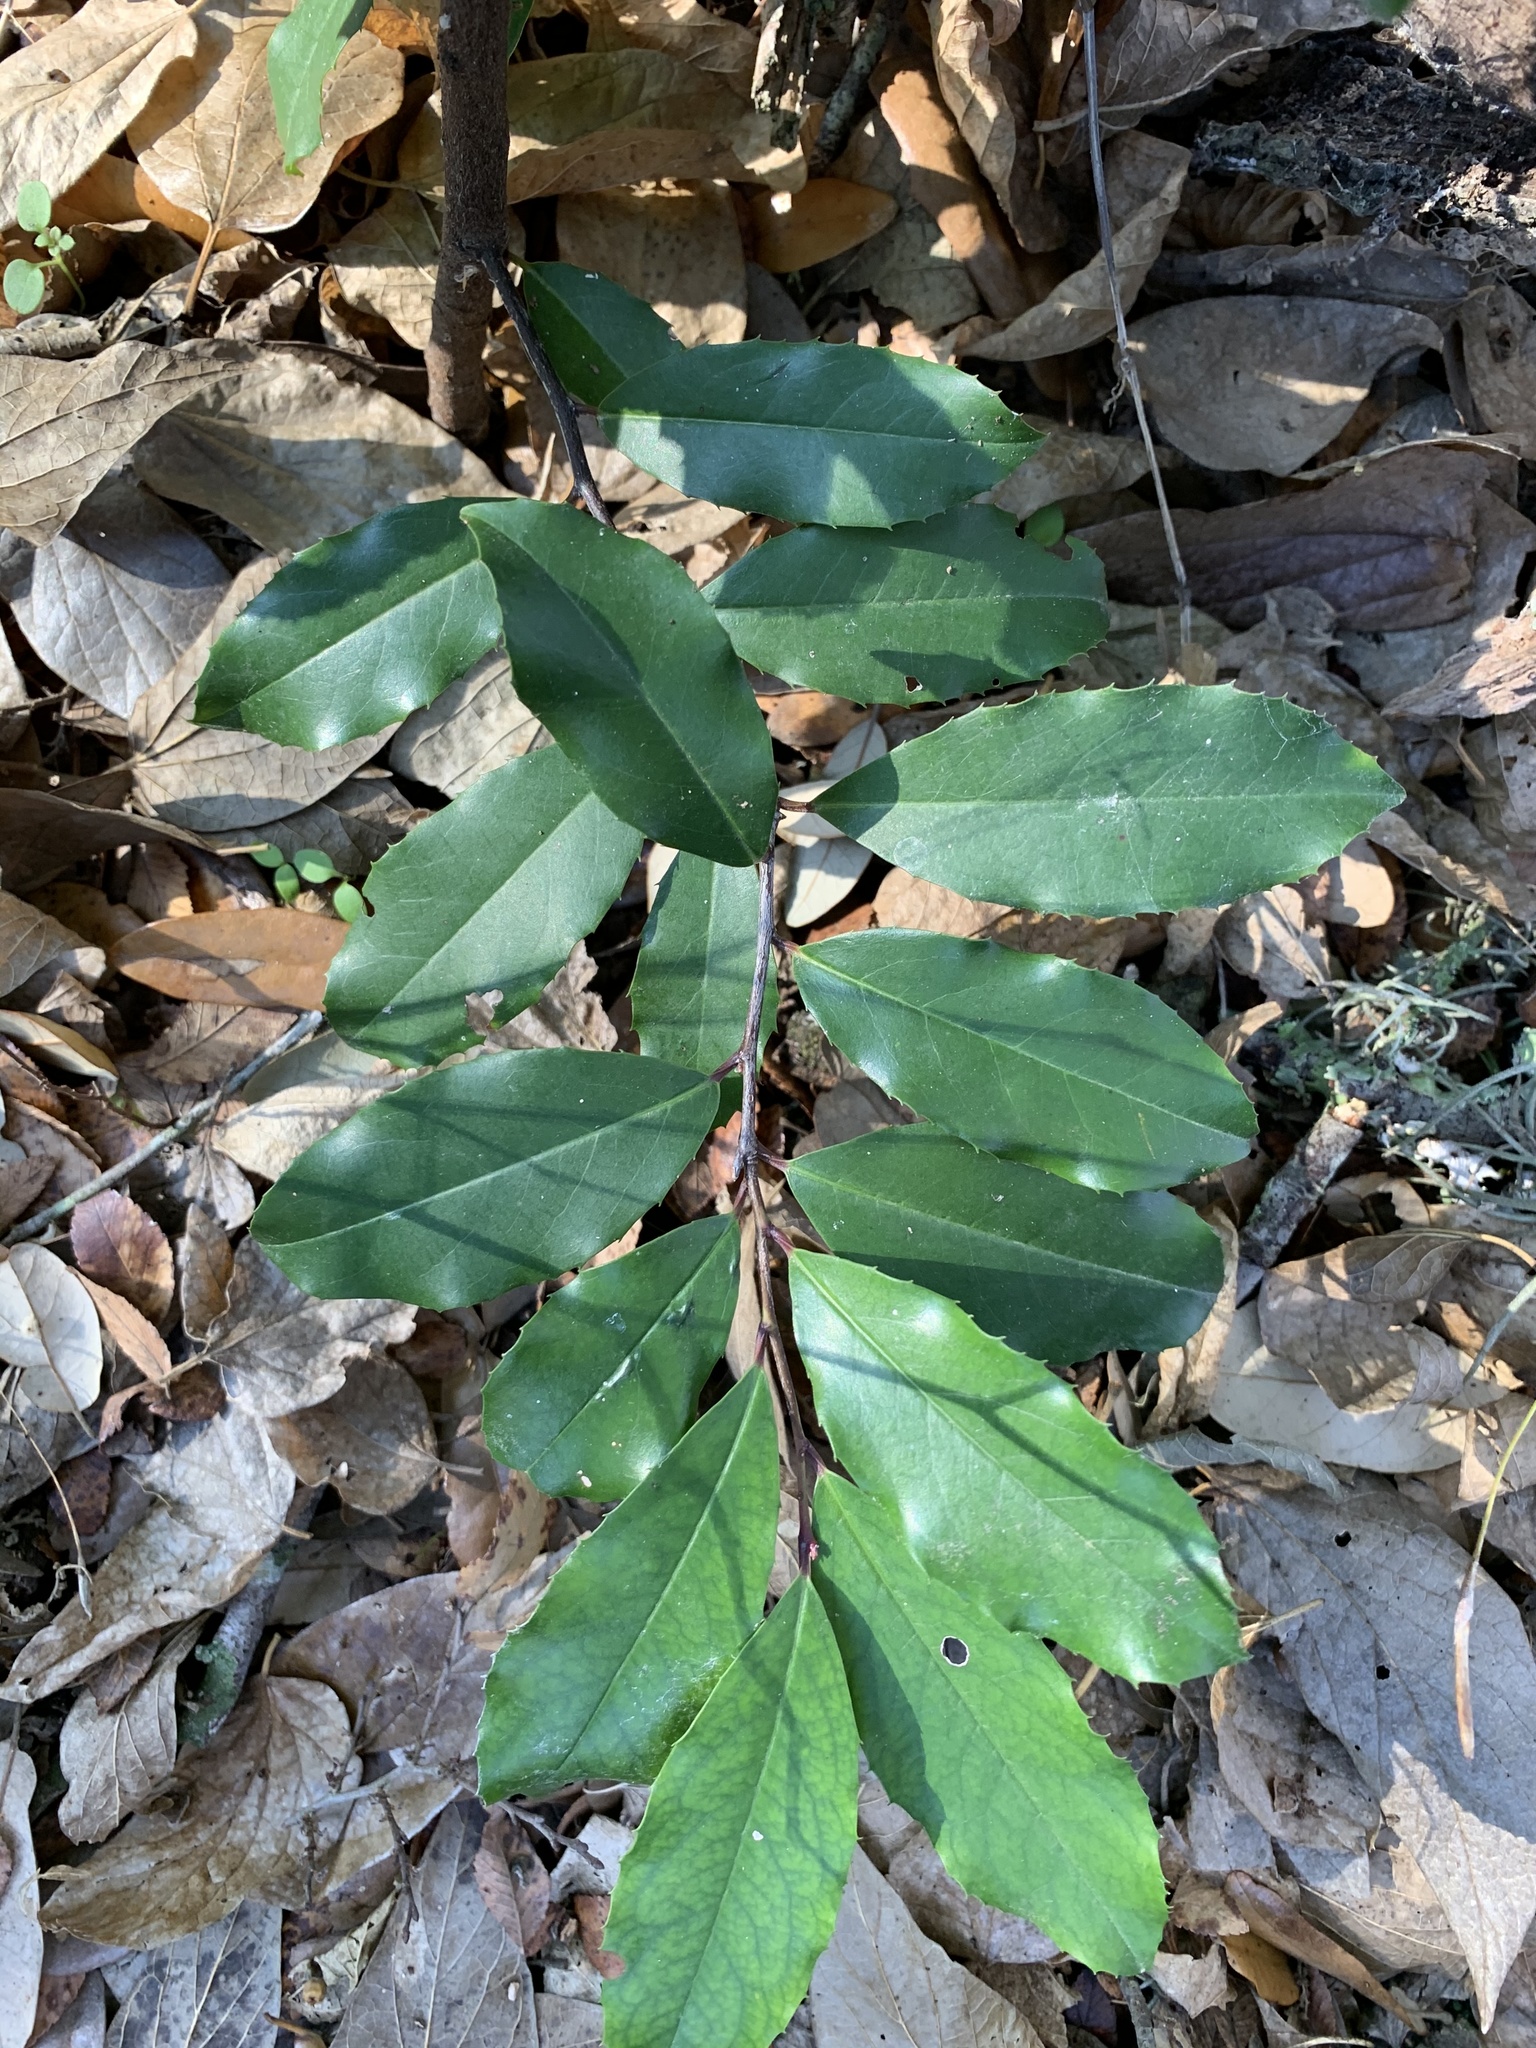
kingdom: Plantae
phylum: Tracheophyta
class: Magnoliopsida
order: Rosales
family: Rosaceae
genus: Prunus
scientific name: Prunus caroliniana
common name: Carolina laurel cherry
